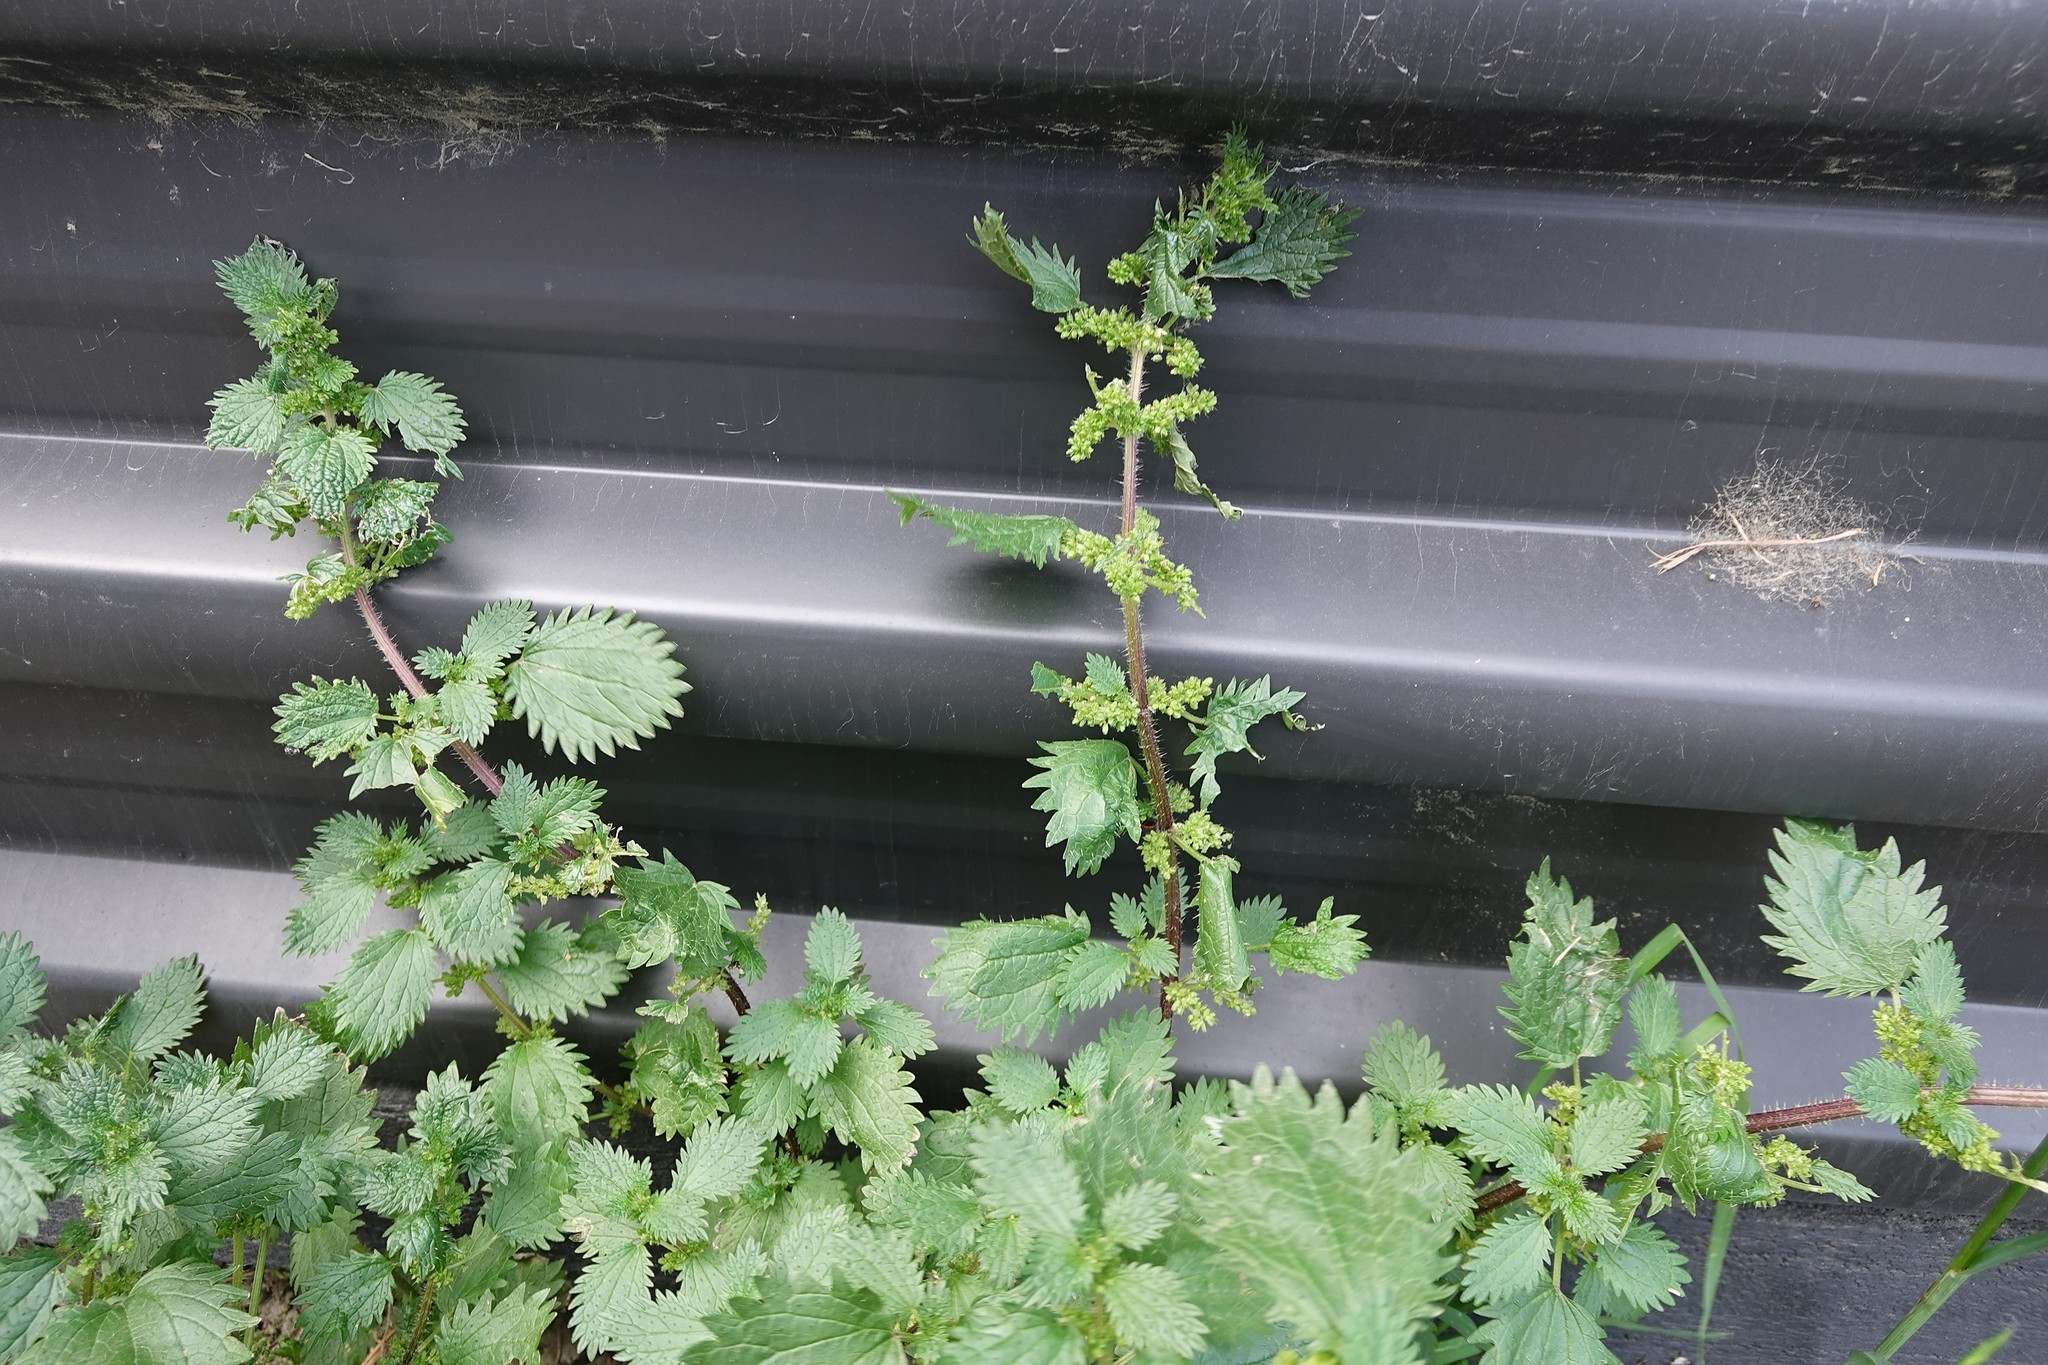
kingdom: Plantae
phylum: Tracheophyta
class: Magnoliopsida
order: Rosales
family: Urticaceae
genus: Urtica
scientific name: Urtica urens
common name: Dwarf nettle
